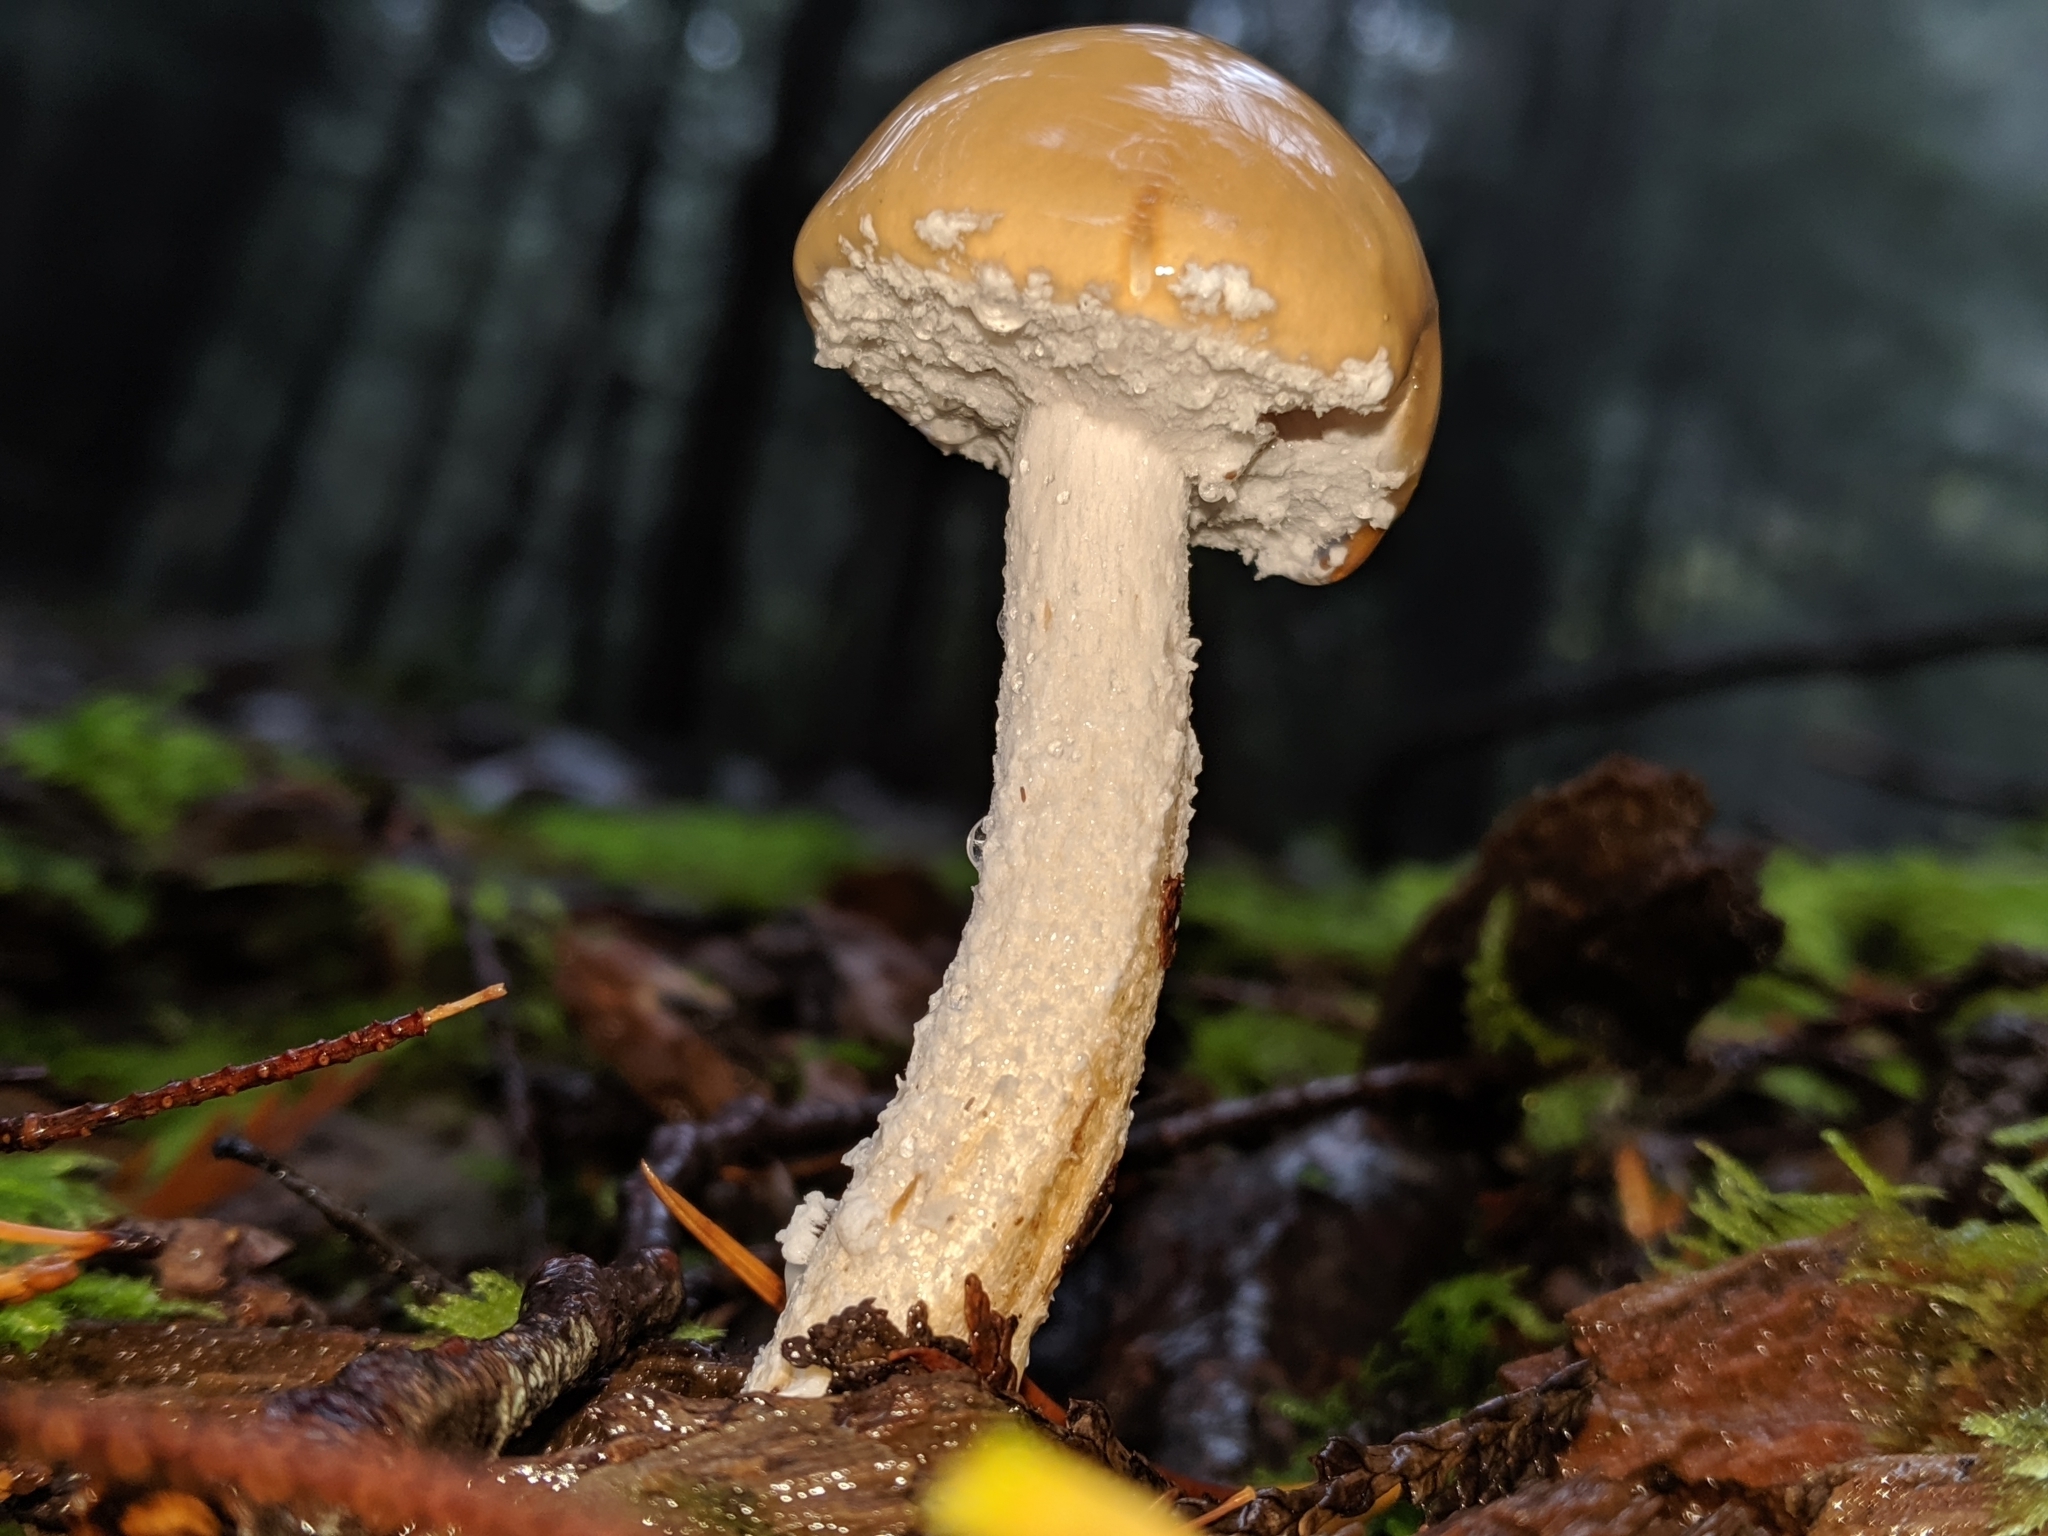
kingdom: Fungi
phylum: Basidiomycota
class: Agaricomycetes
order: Agaricales
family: Strophariaceae
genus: Stropharia
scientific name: Stropharia ambigua
